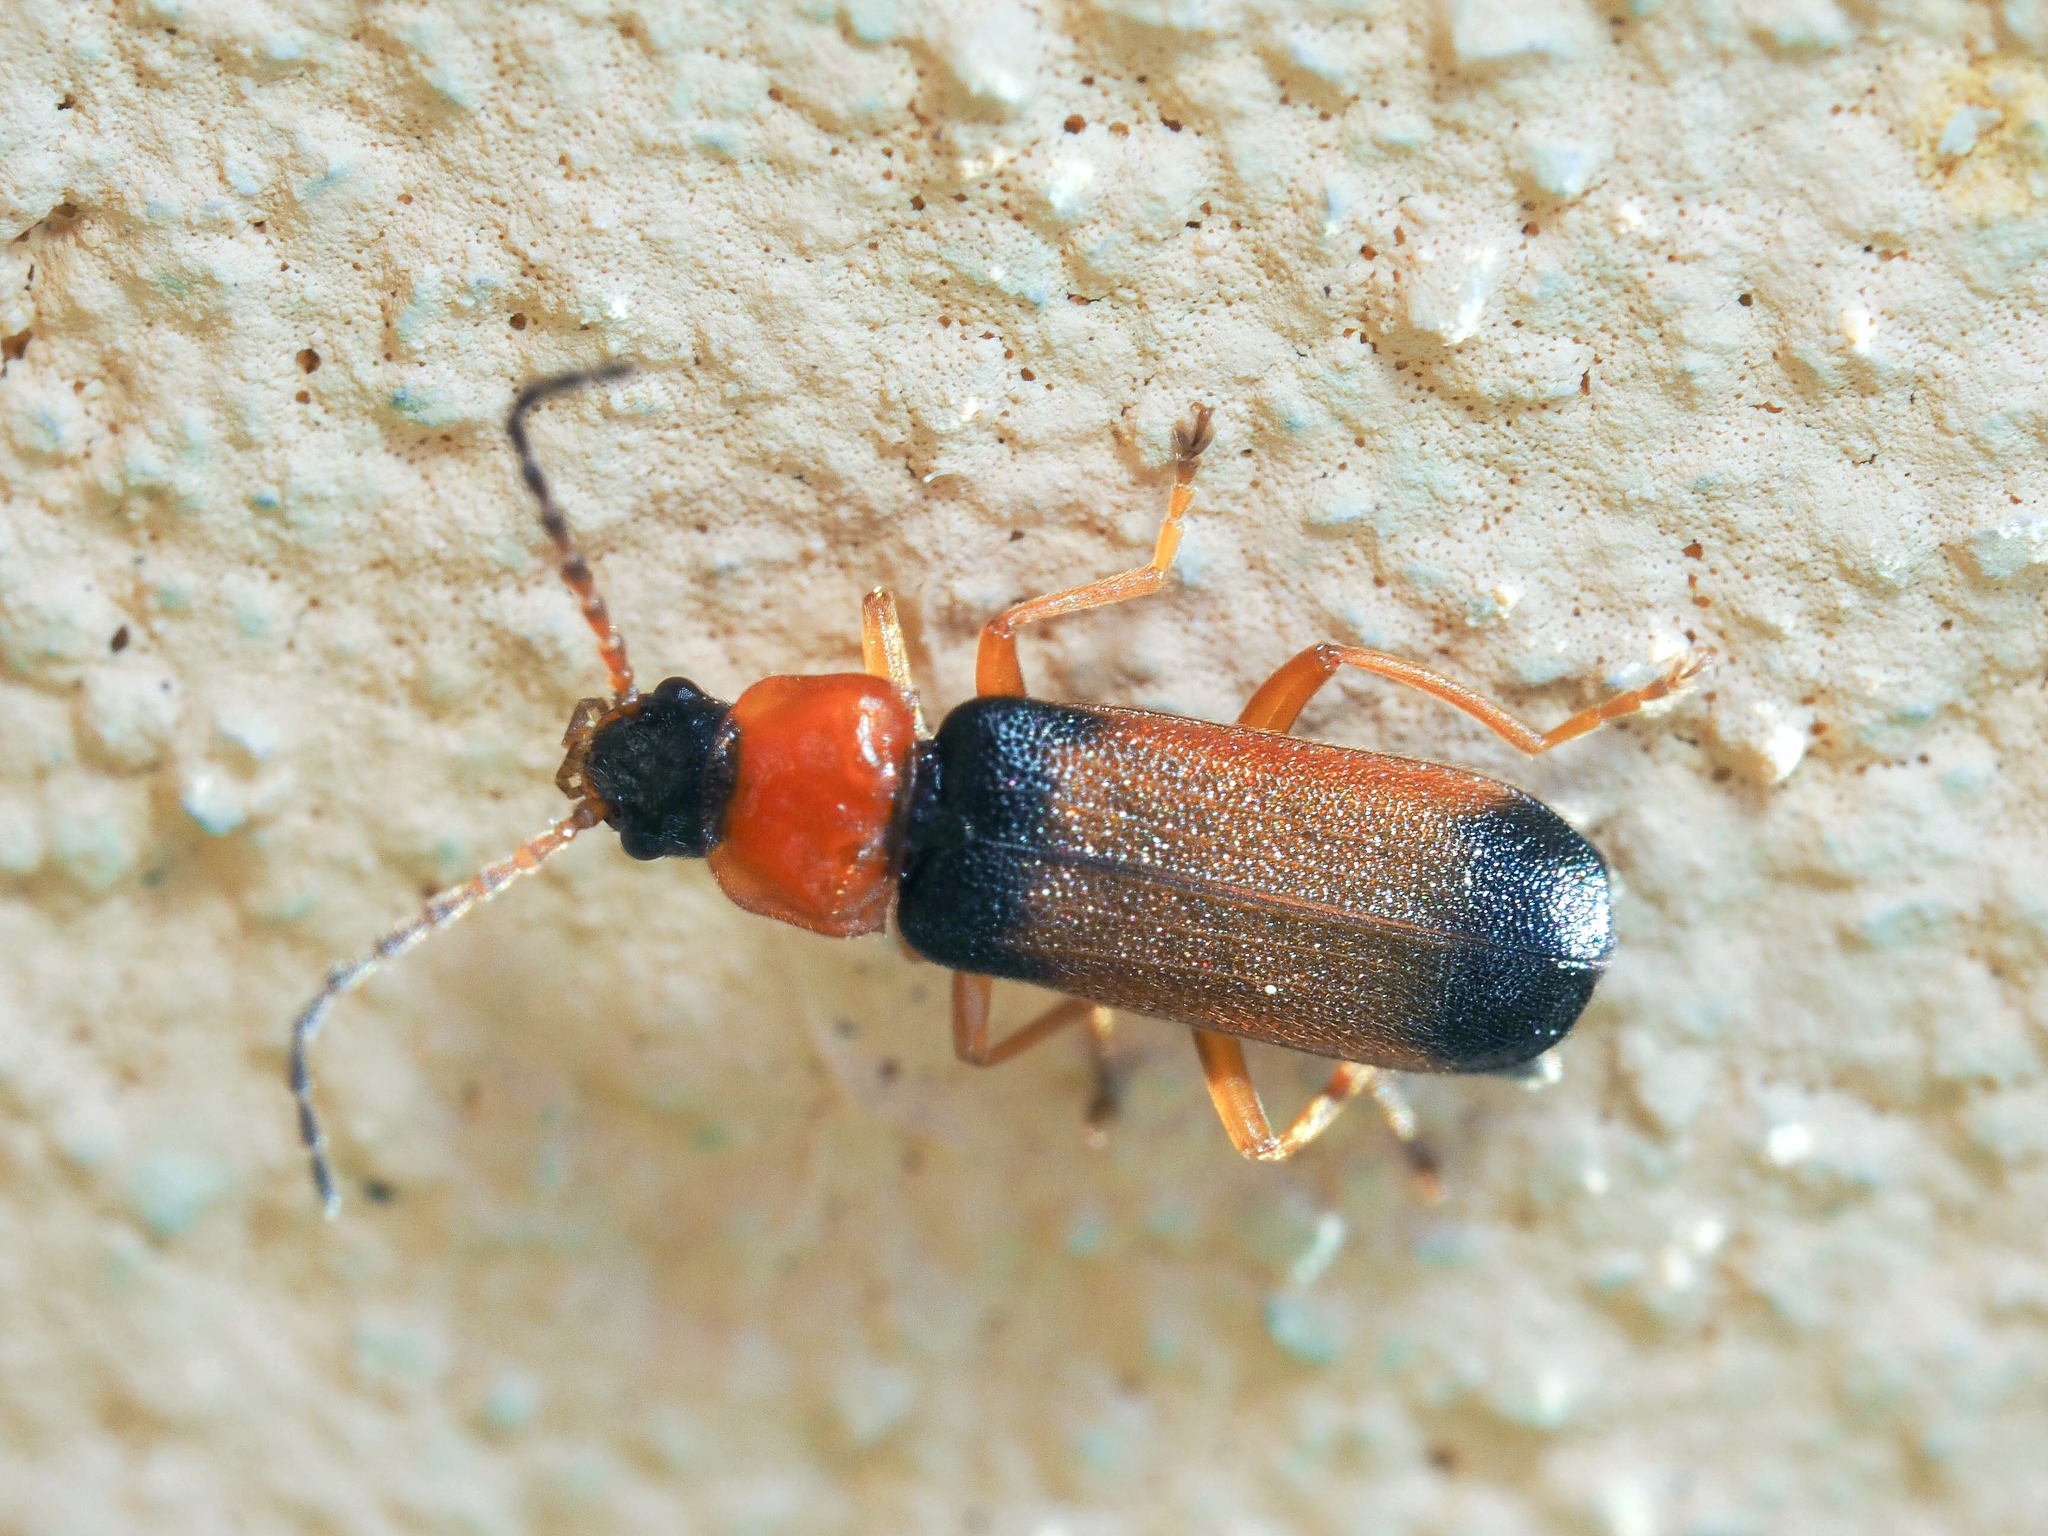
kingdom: Animalia
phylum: Arthropoda
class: Insecta
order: Coleoptera
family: Cantharidae
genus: Cratosilis
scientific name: Cratosilis laeta
